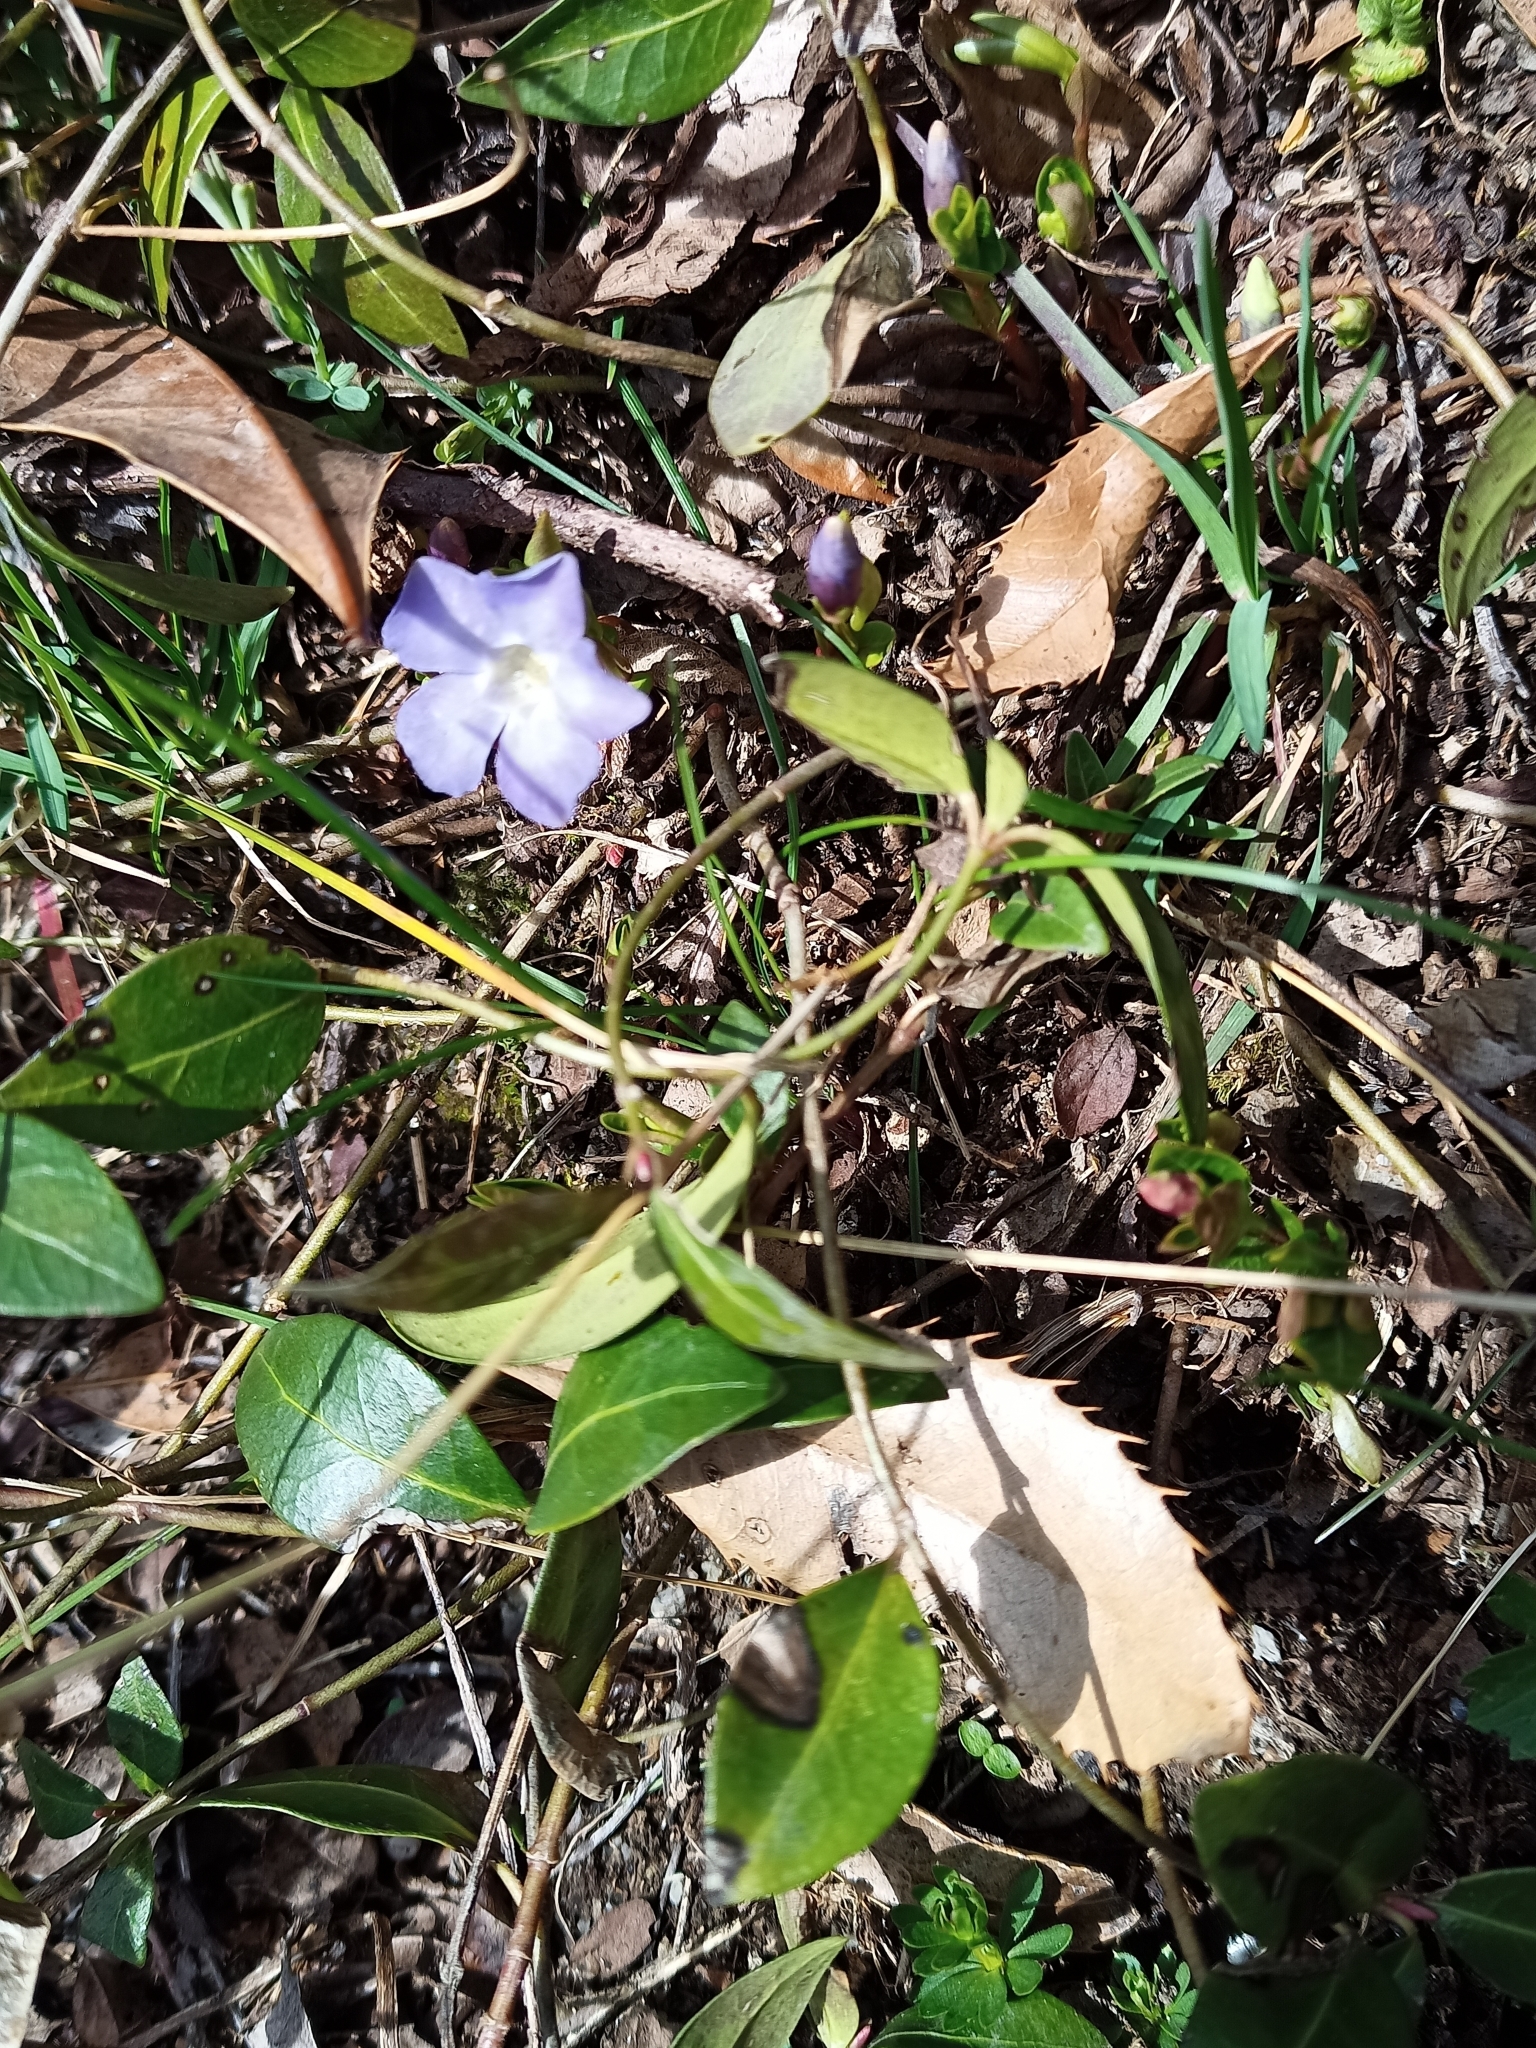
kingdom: Plantae
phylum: Tracheophyta
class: Magnoliopsida
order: Gentianales
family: Apocynaceae
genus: Vinca
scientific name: Vinca minor
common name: Lesser periwinkle
